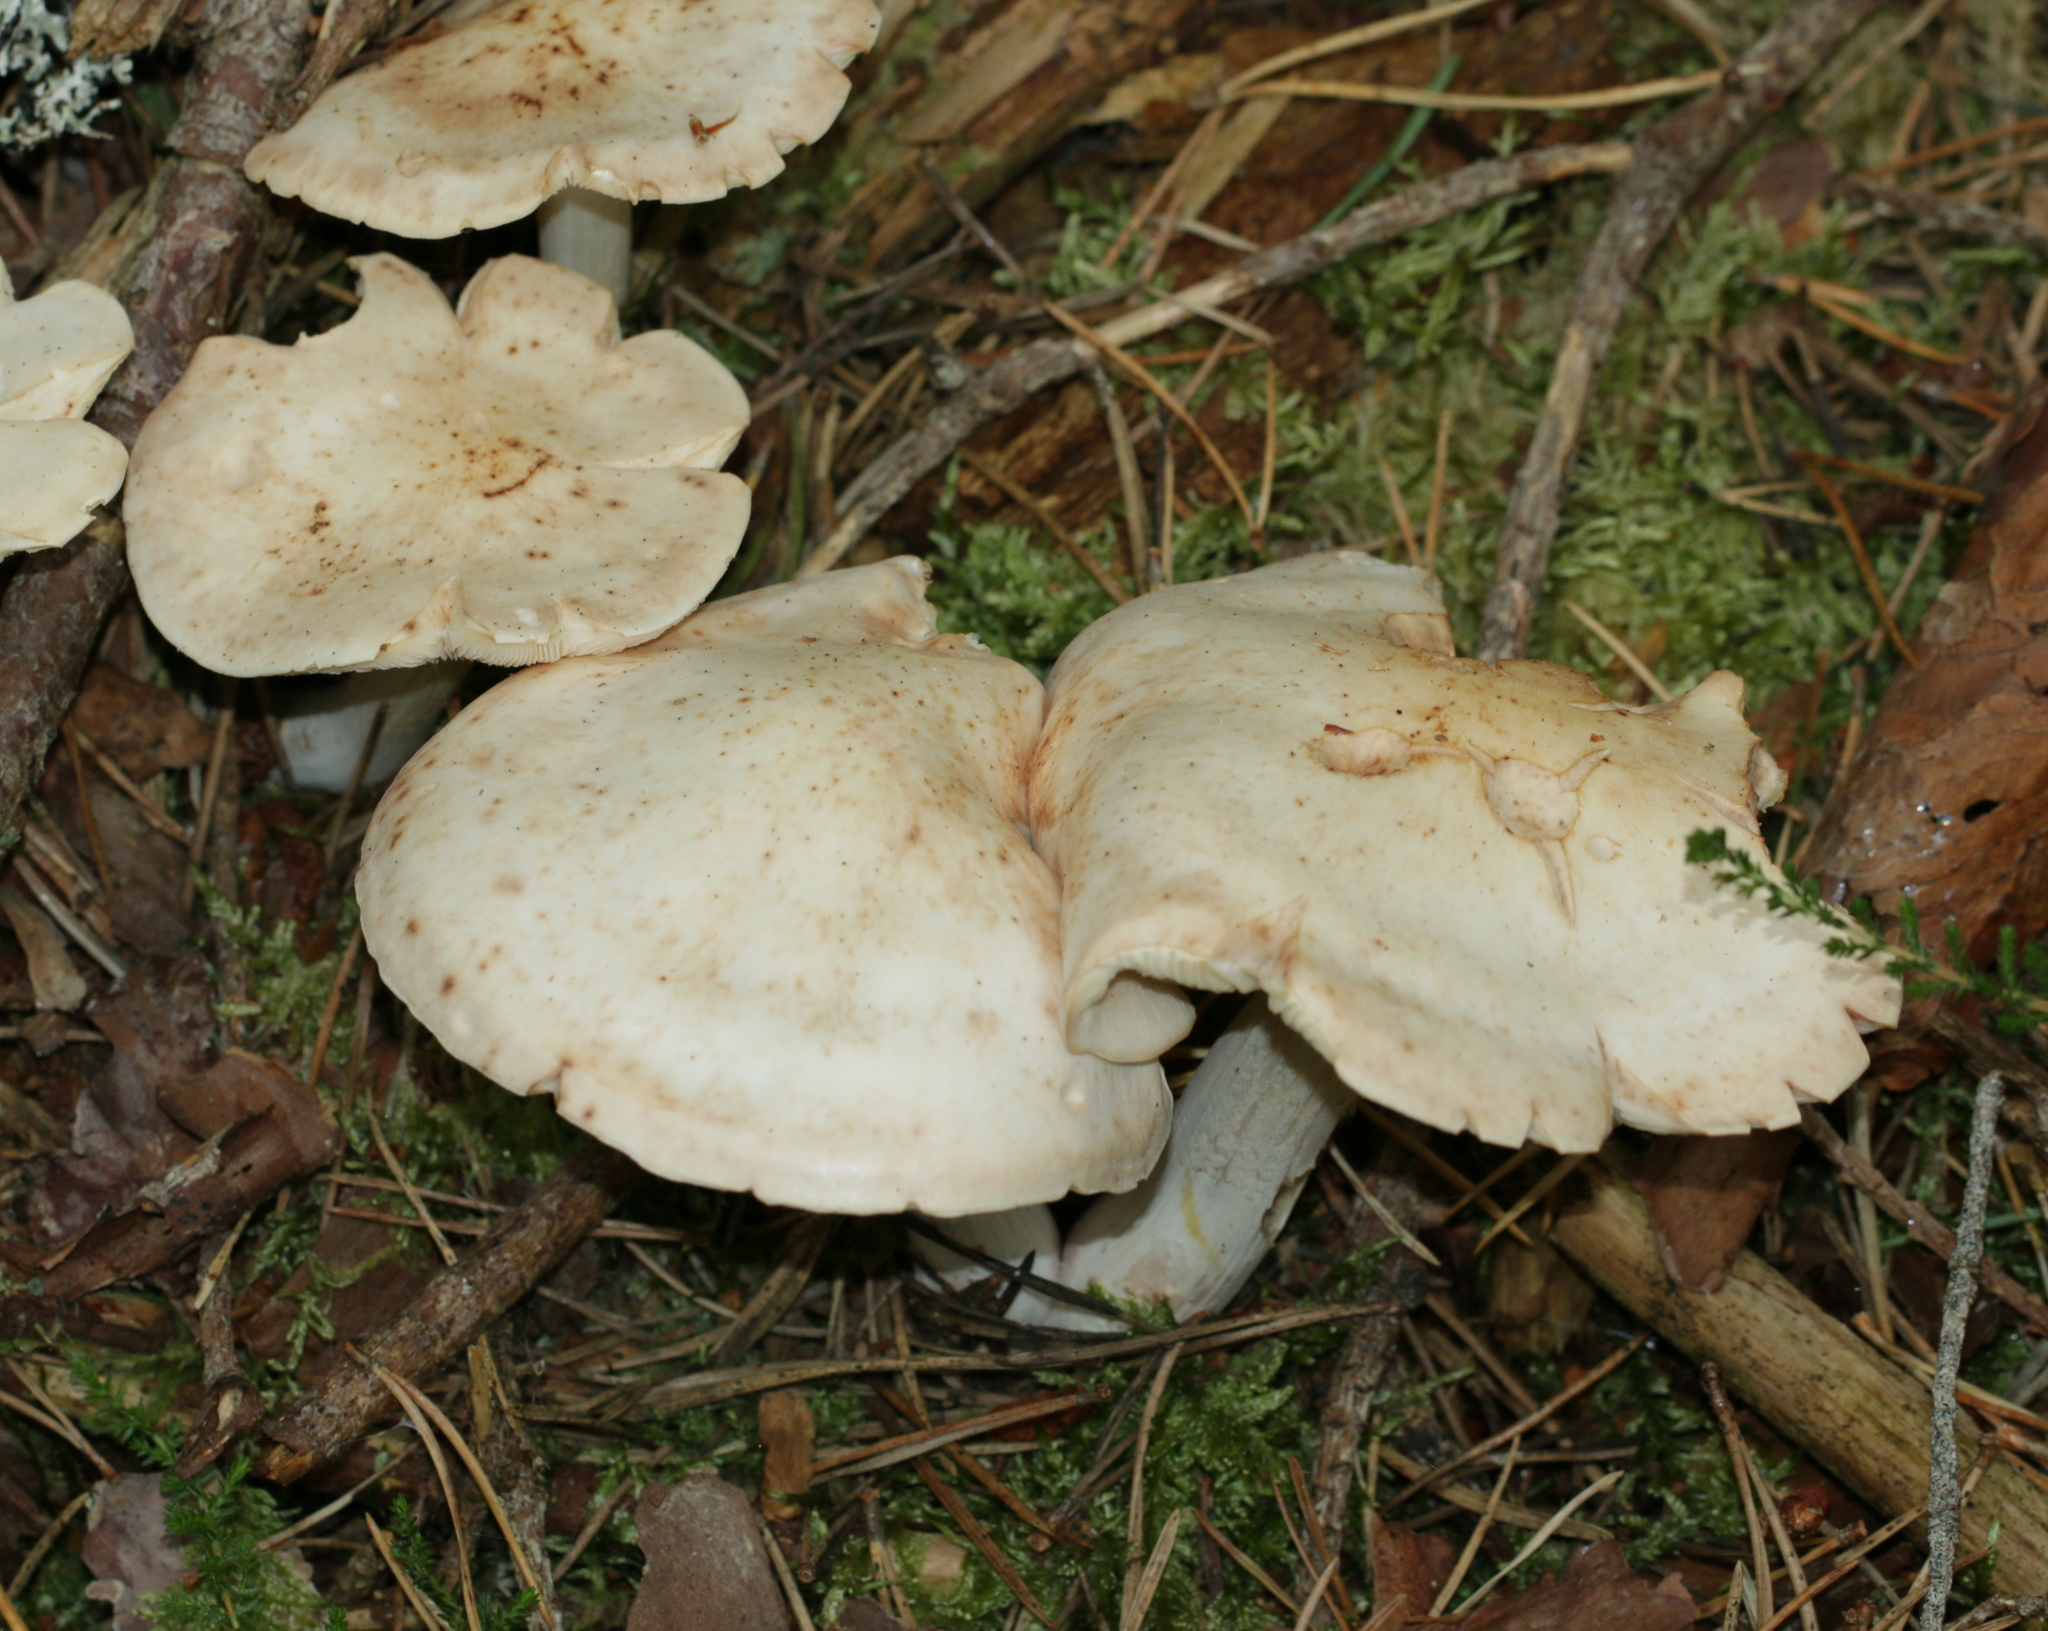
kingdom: Fungi
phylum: Basidiomycota
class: Agaricomycetes
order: Agaricales
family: Omphalotaceae
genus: Rhodocollybia
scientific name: Rhodocollybia maculata
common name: Spotted tough-shank
